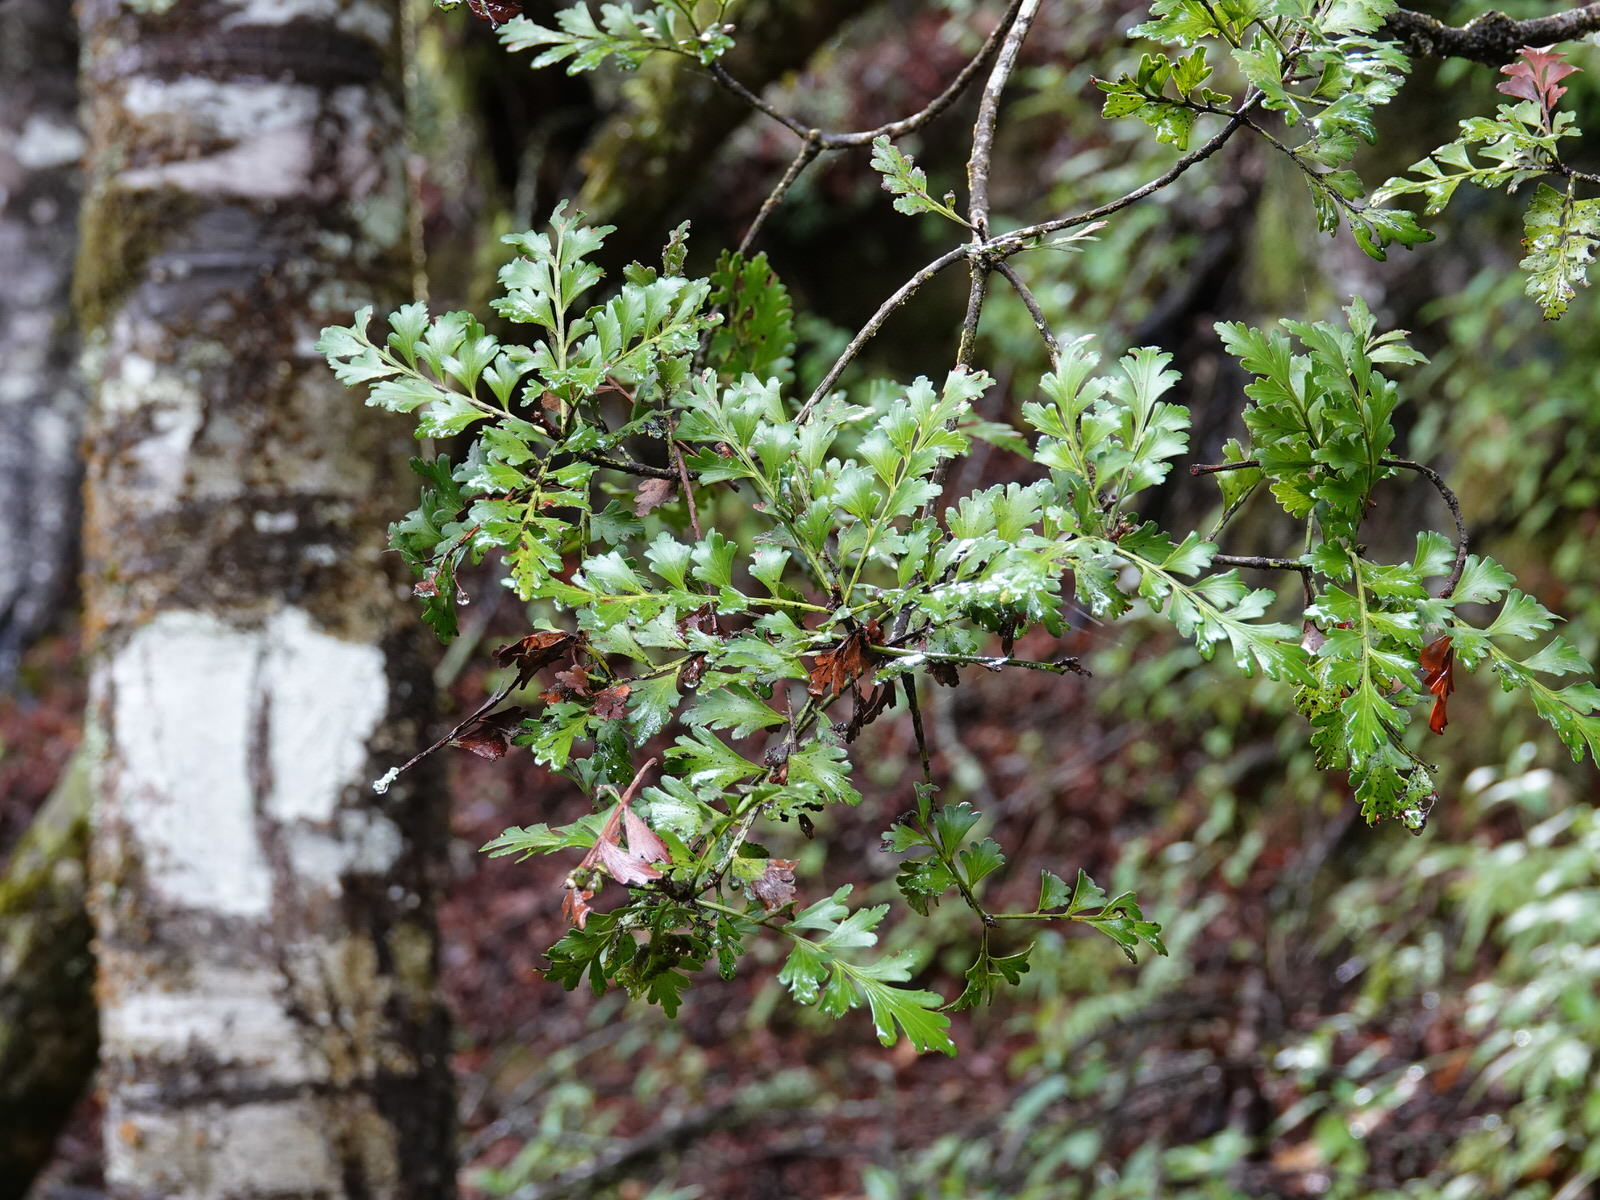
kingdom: Plantae
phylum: Tracheophyta
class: Pinopsida
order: Pinales
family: Phyllocladaceae
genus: Phyllocladus
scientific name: Phyllocladus trichomanoides
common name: Celery pine
